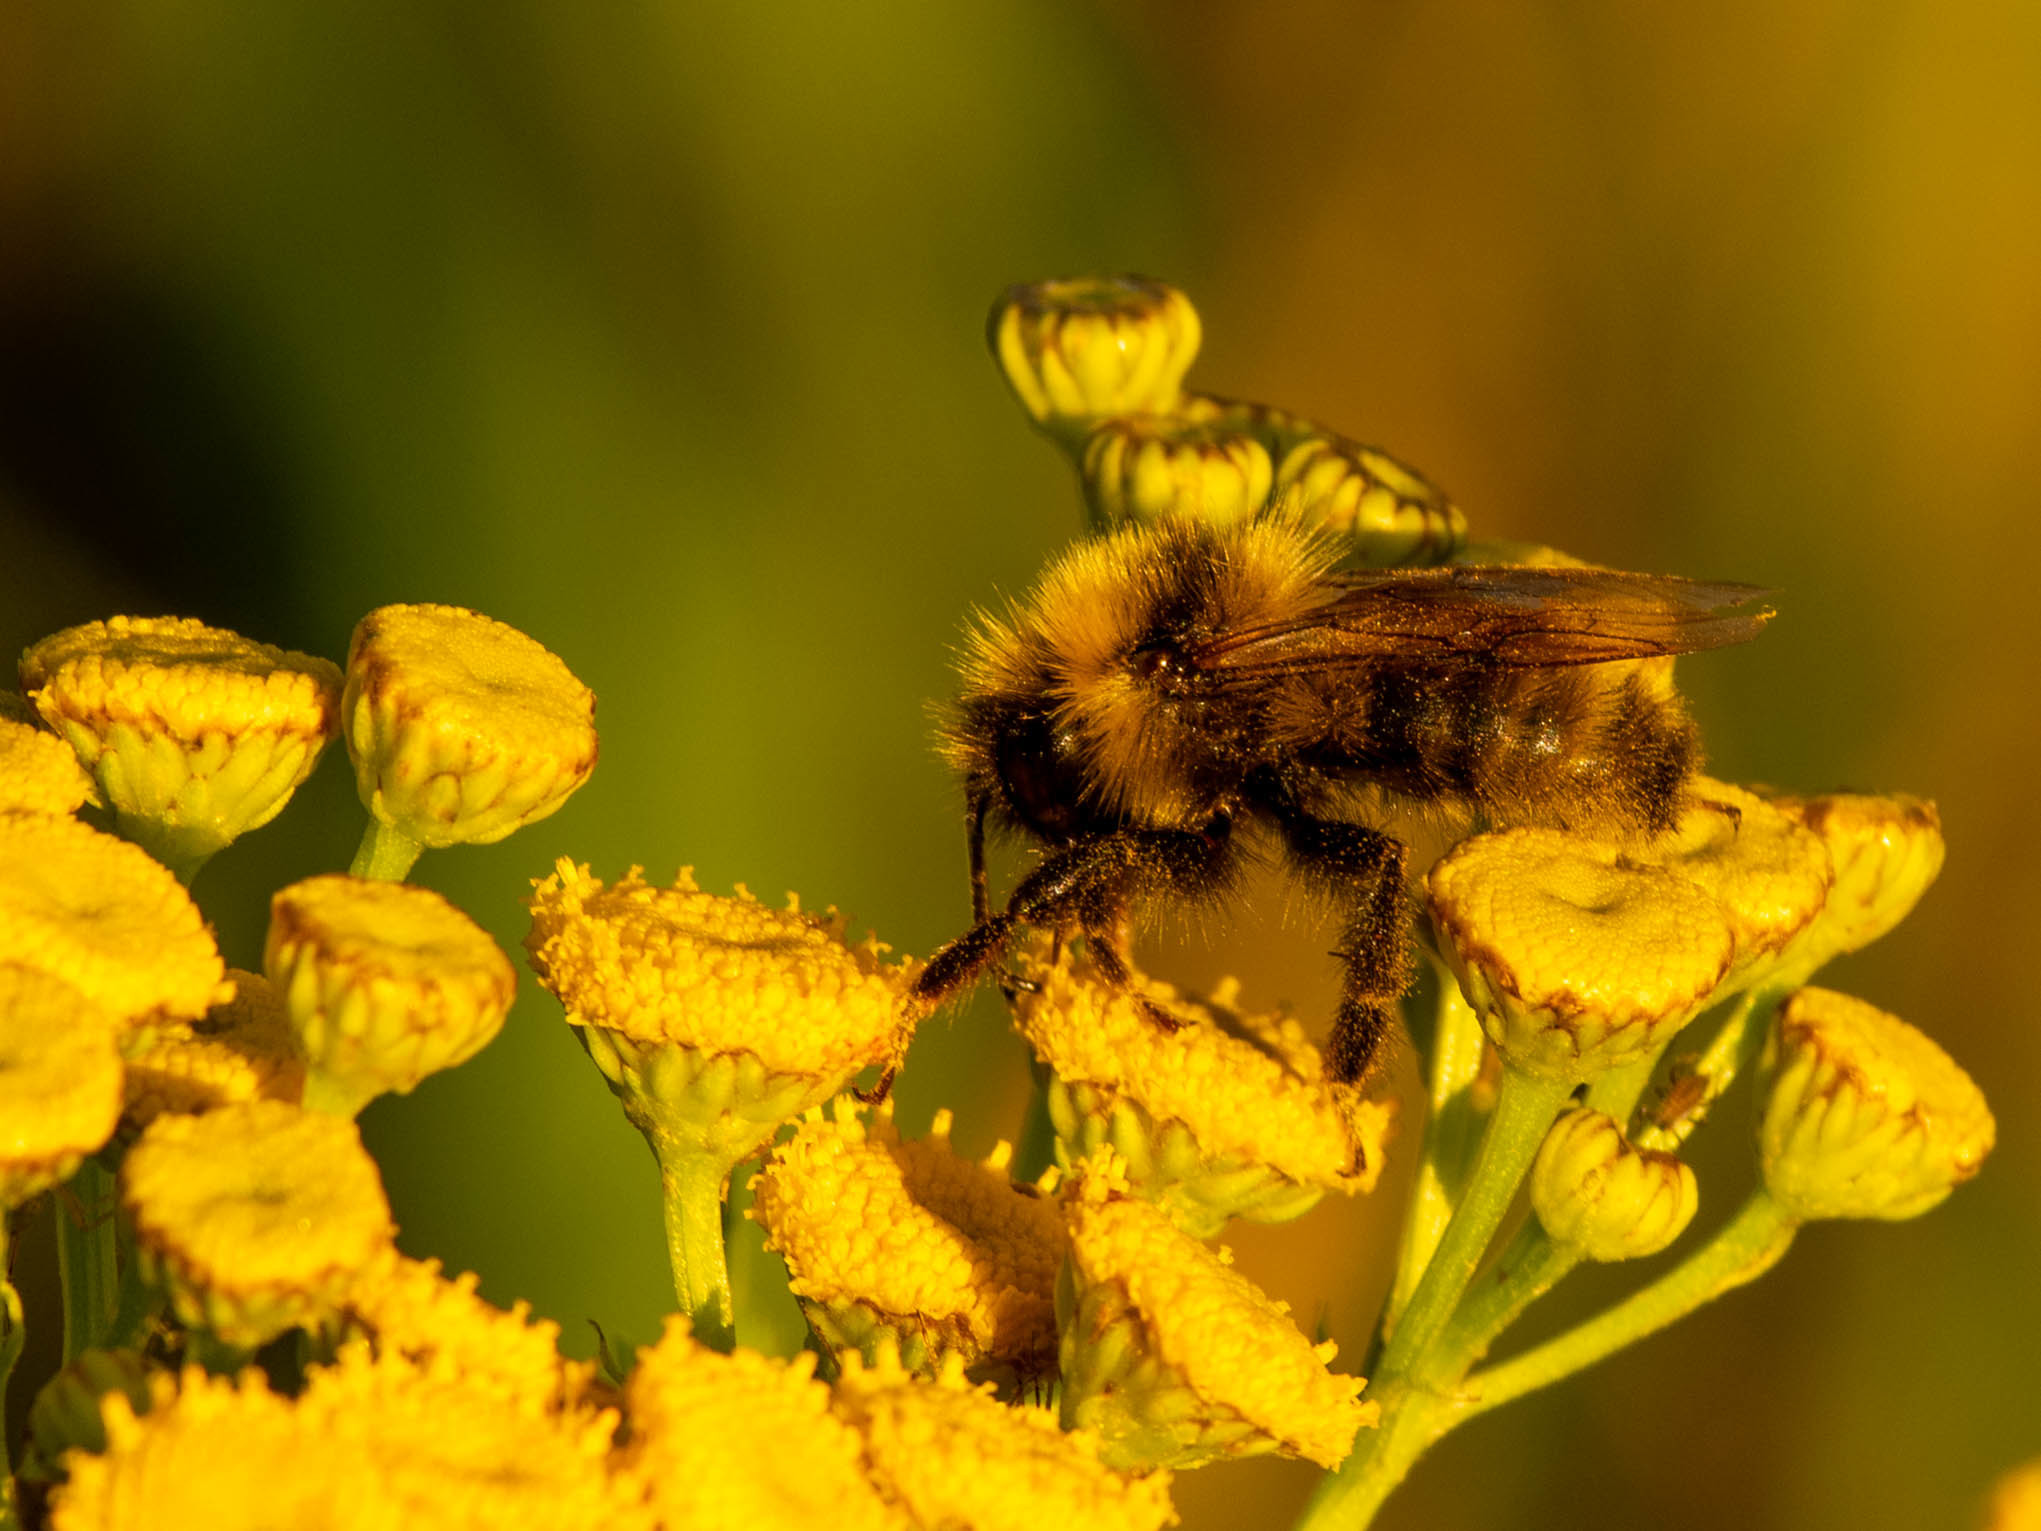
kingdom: Animalia
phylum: Arthropoda
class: Insecta
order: Hymenoptera
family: Apidae
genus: Bombus
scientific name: Bombus suckleyi
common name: Suckley cuckoo bumble bee
